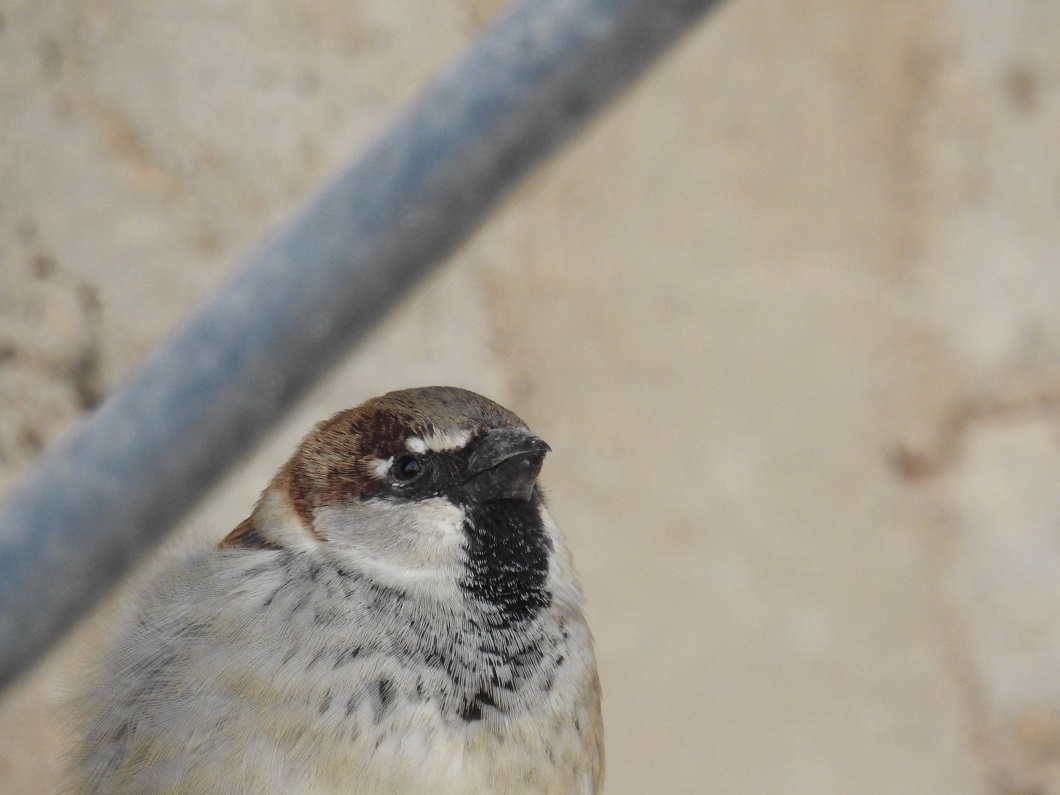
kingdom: Animalia
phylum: Chordata
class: Aves
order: Passeriformes
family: Passeridae
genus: Passer
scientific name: Passer domesticus
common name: House sparrow
